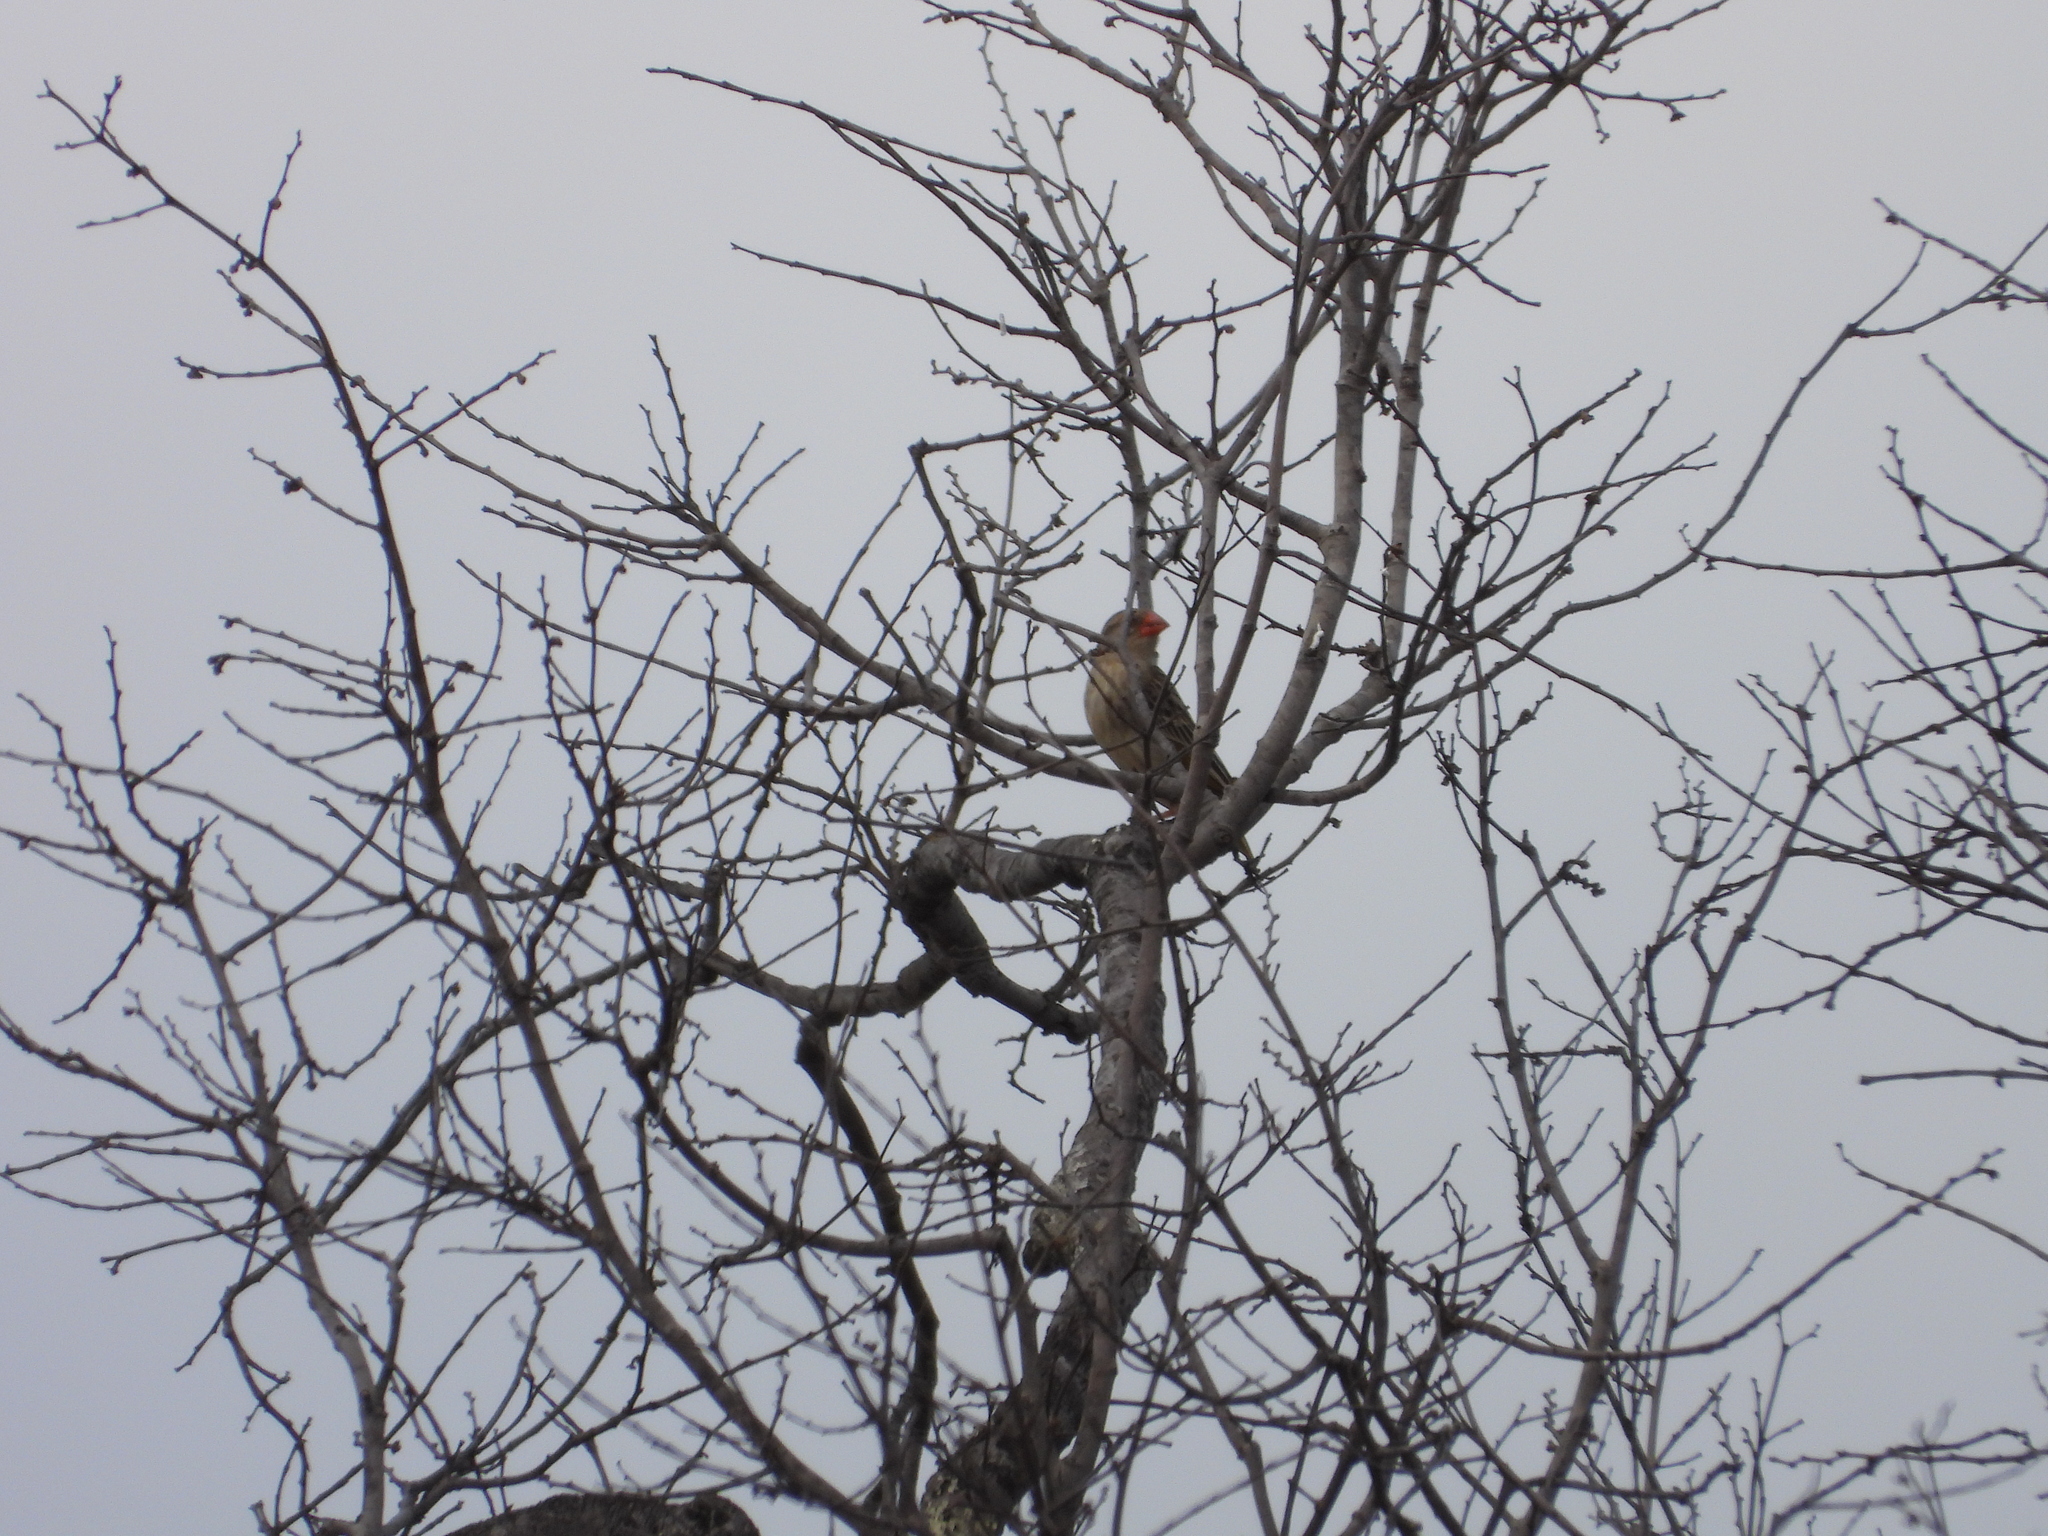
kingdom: Animalia
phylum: Chordata
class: Aves
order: Passeriformes
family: Ploceidae
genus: Quelea
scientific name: Quelea quelea
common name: Red-billed quelea
